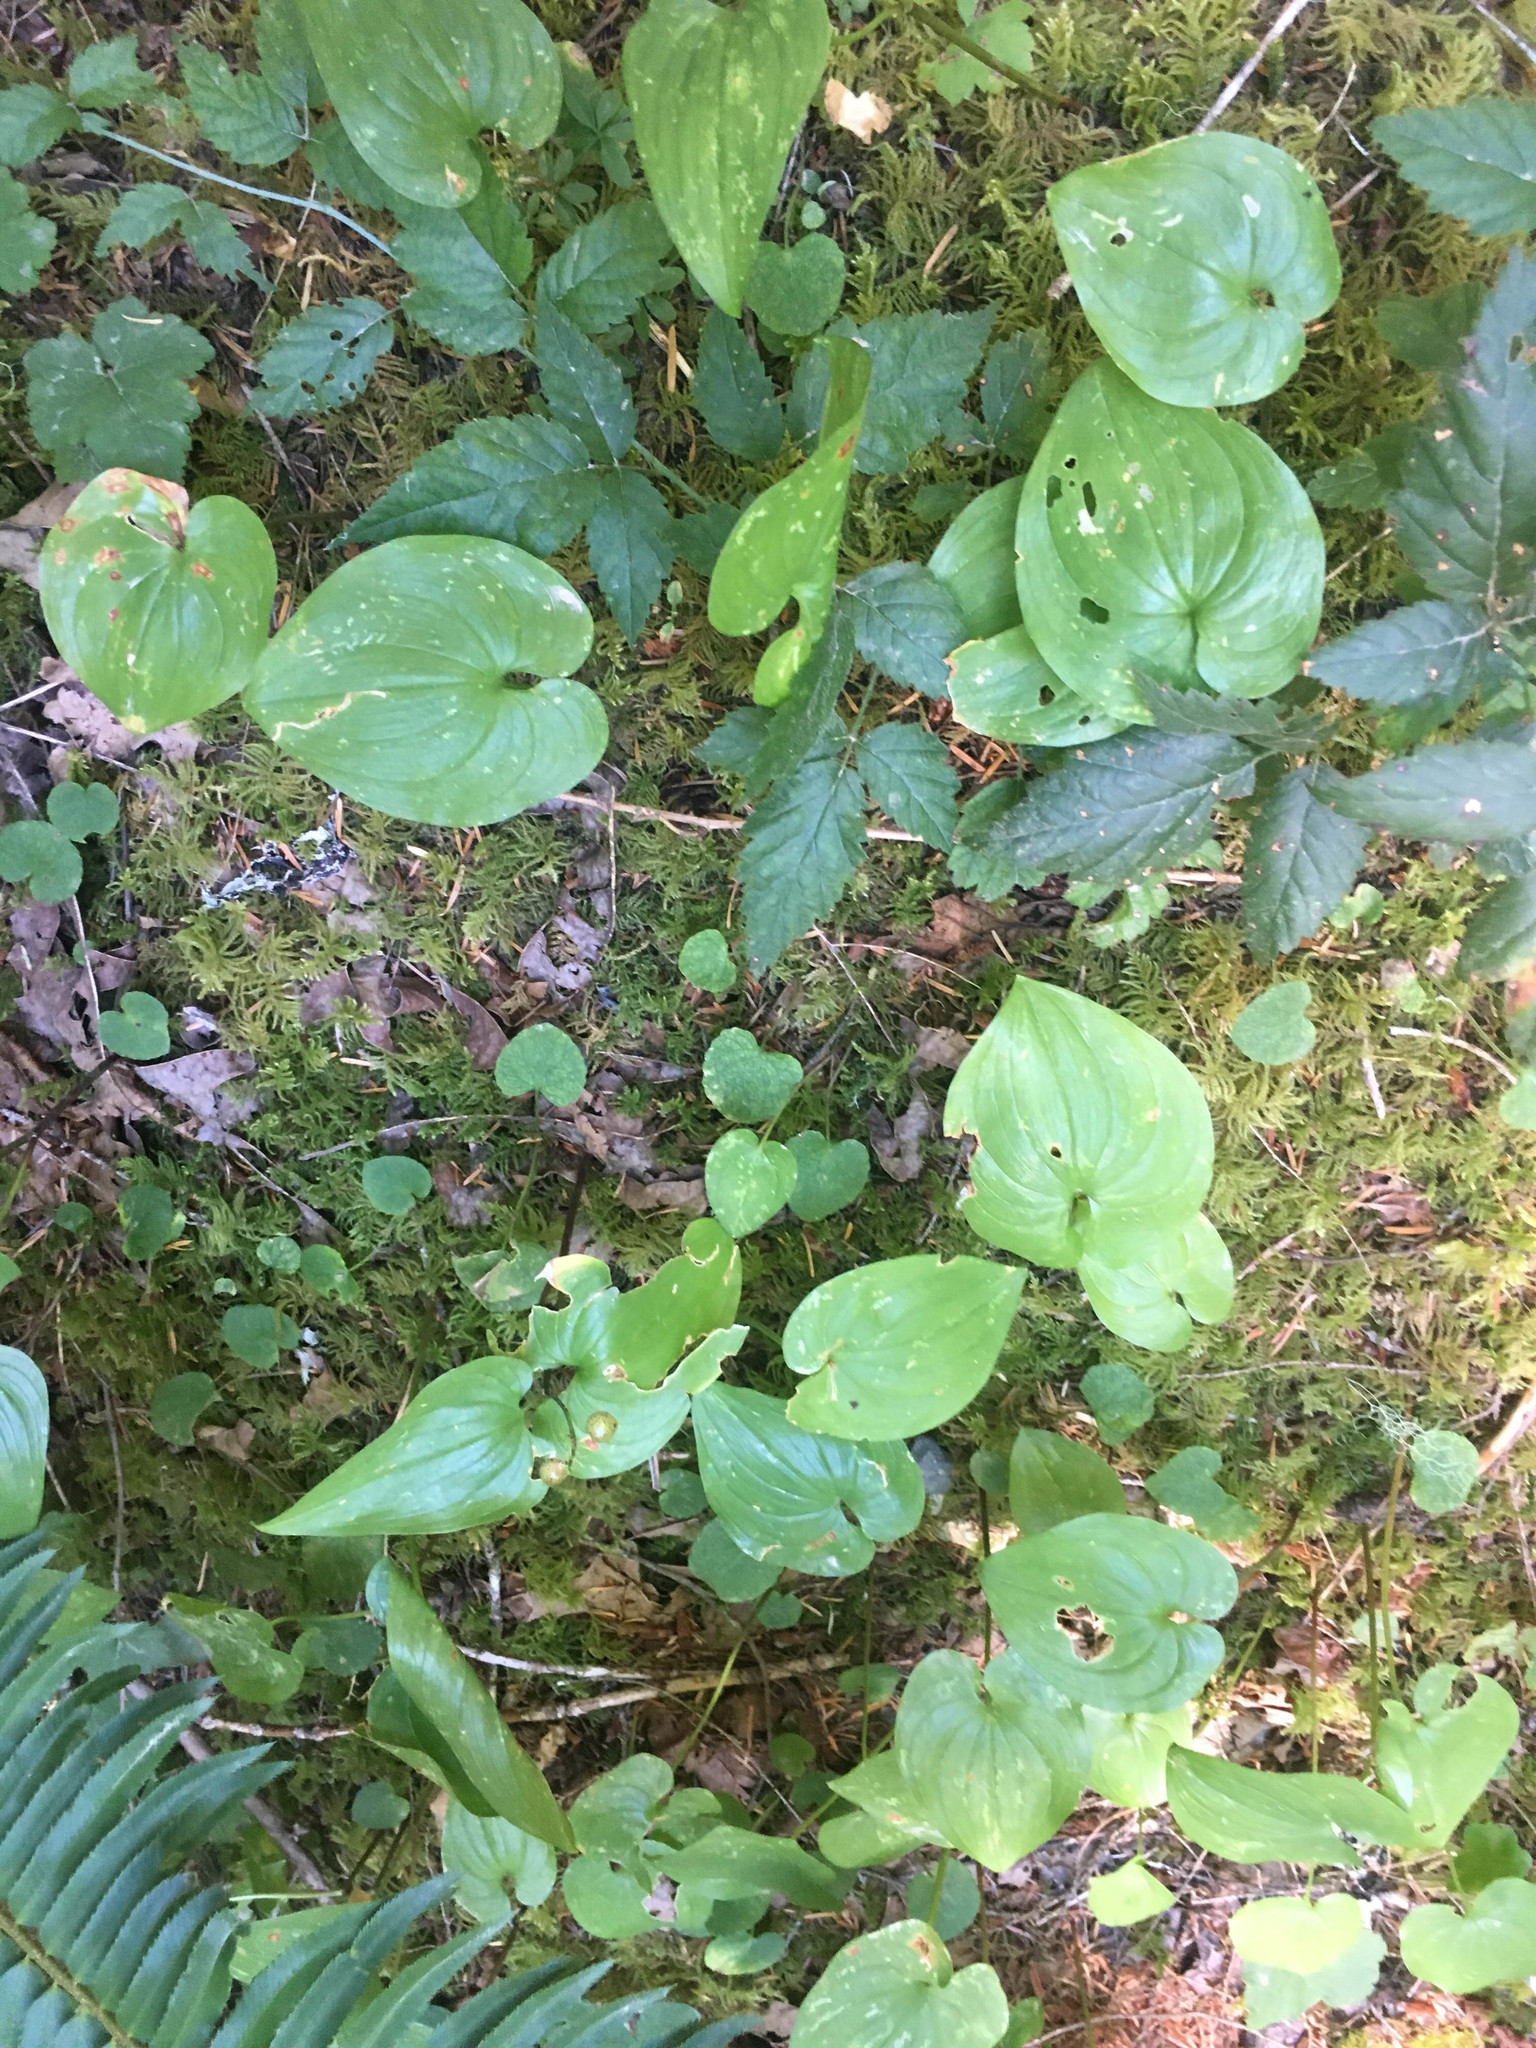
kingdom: Plantae
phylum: Tracheophyta
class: Liliopsida
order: Asparagales
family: Asparagaceae
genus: Maianthemum
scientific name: Maianthemum dilatatum
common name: False lily-of-the-valley
